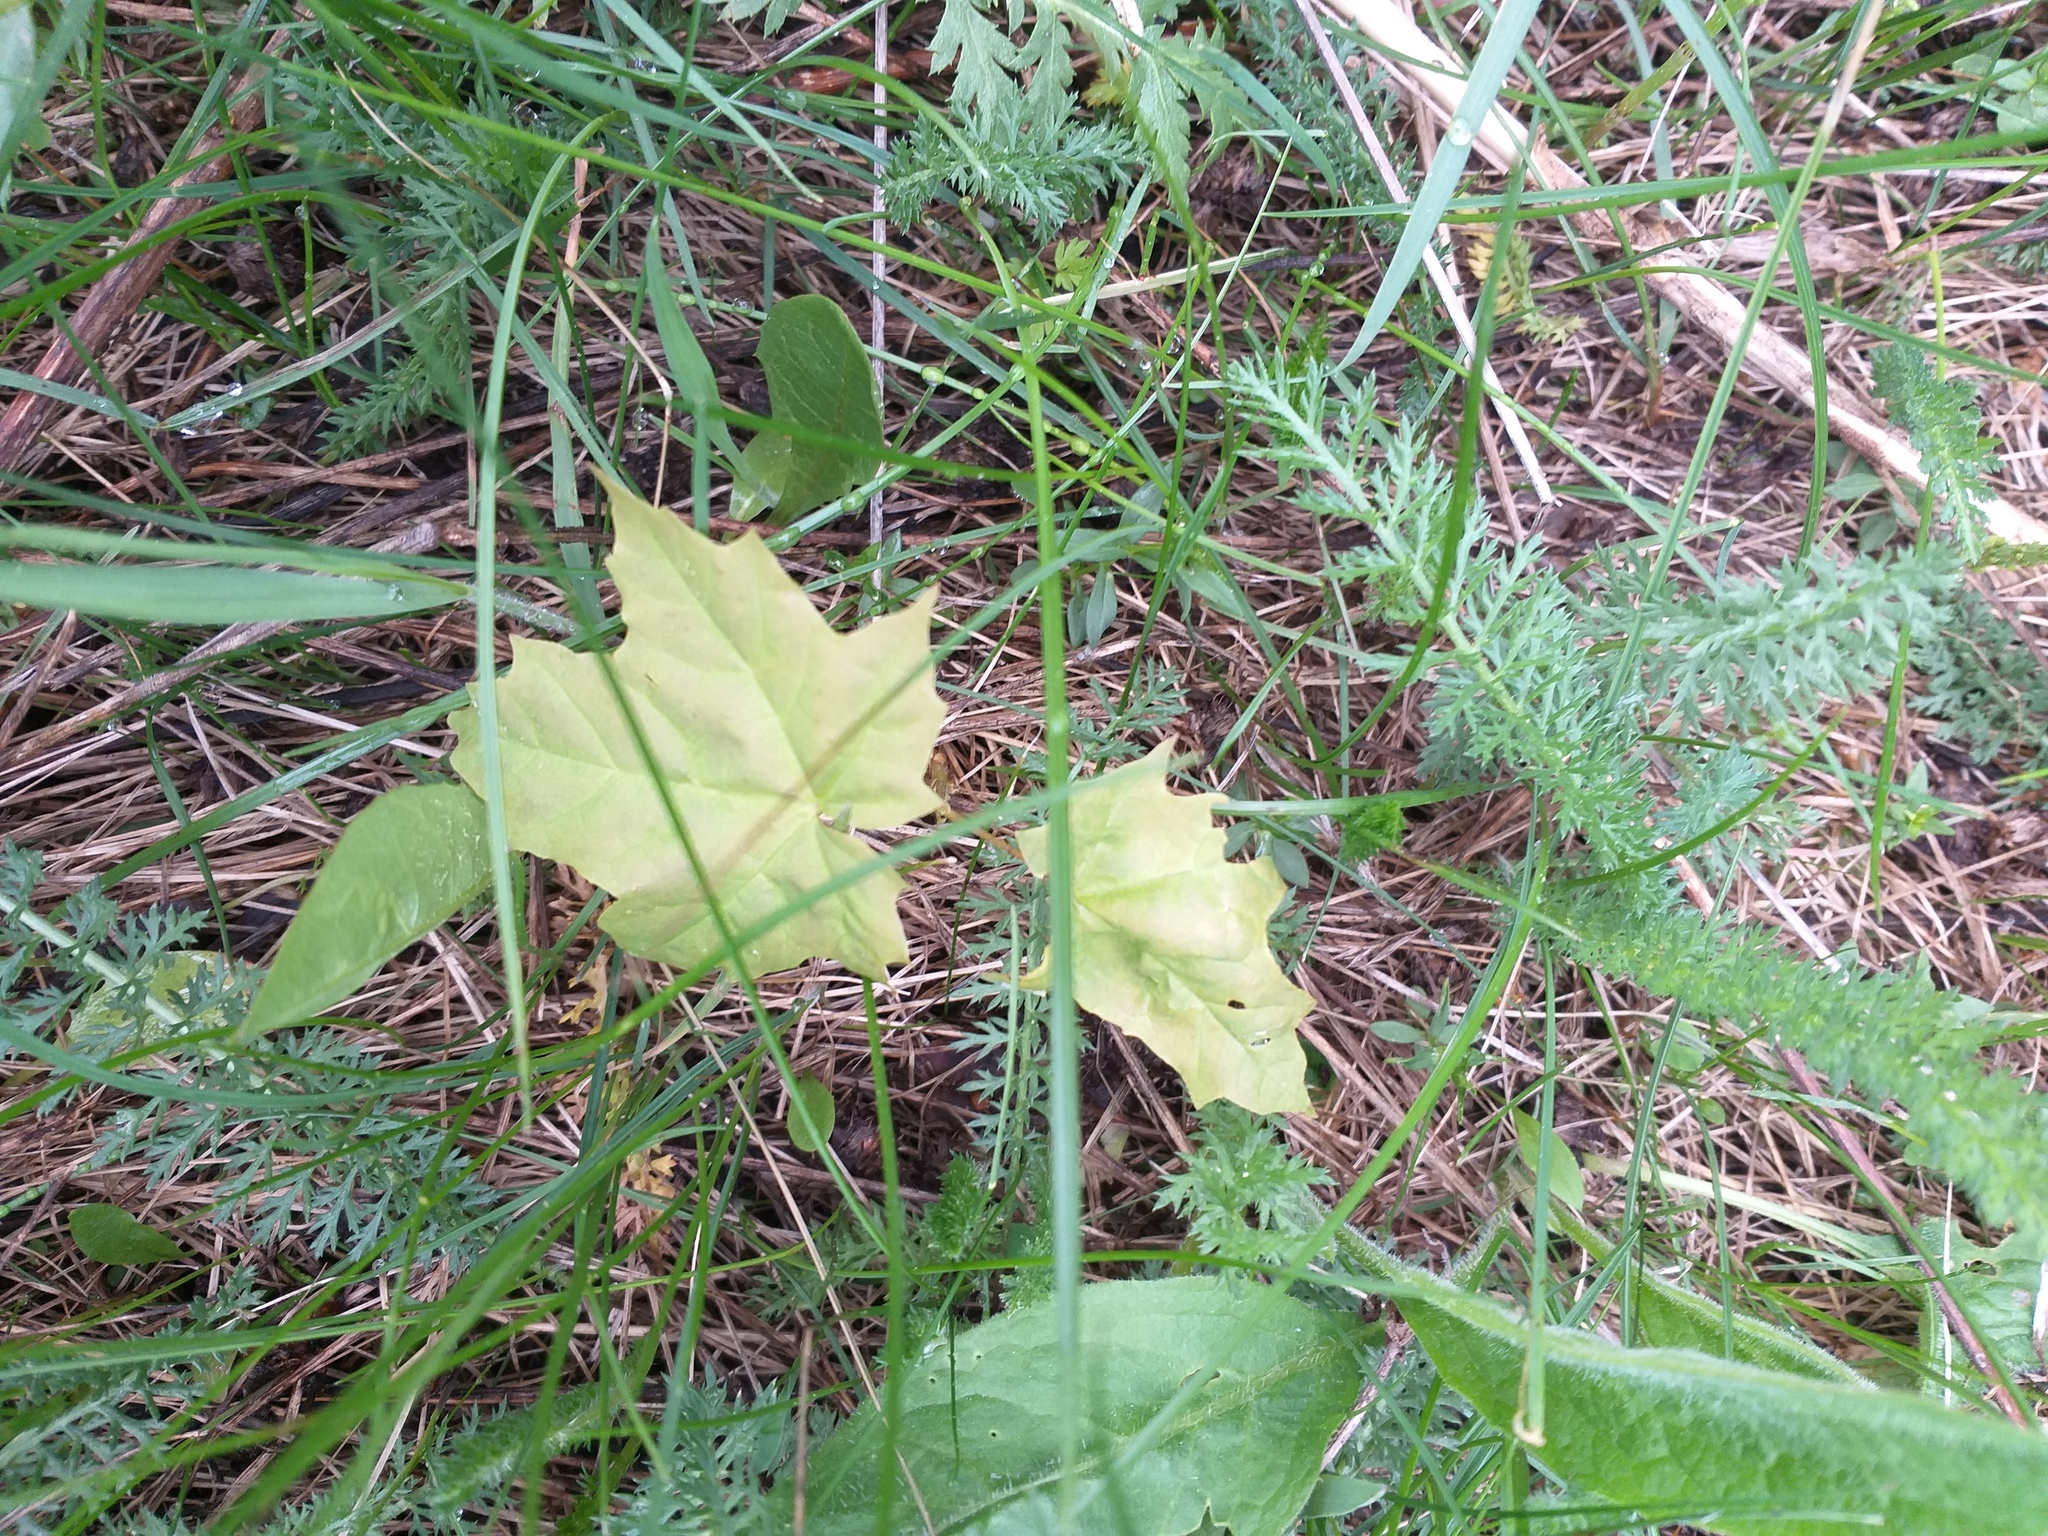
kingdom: Plantae
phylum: Tracheophyta
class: Magnoliopsida
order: Sapindales
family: Sapindaceae
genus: Acer
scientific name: Acer platanoides
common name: Norway maple
